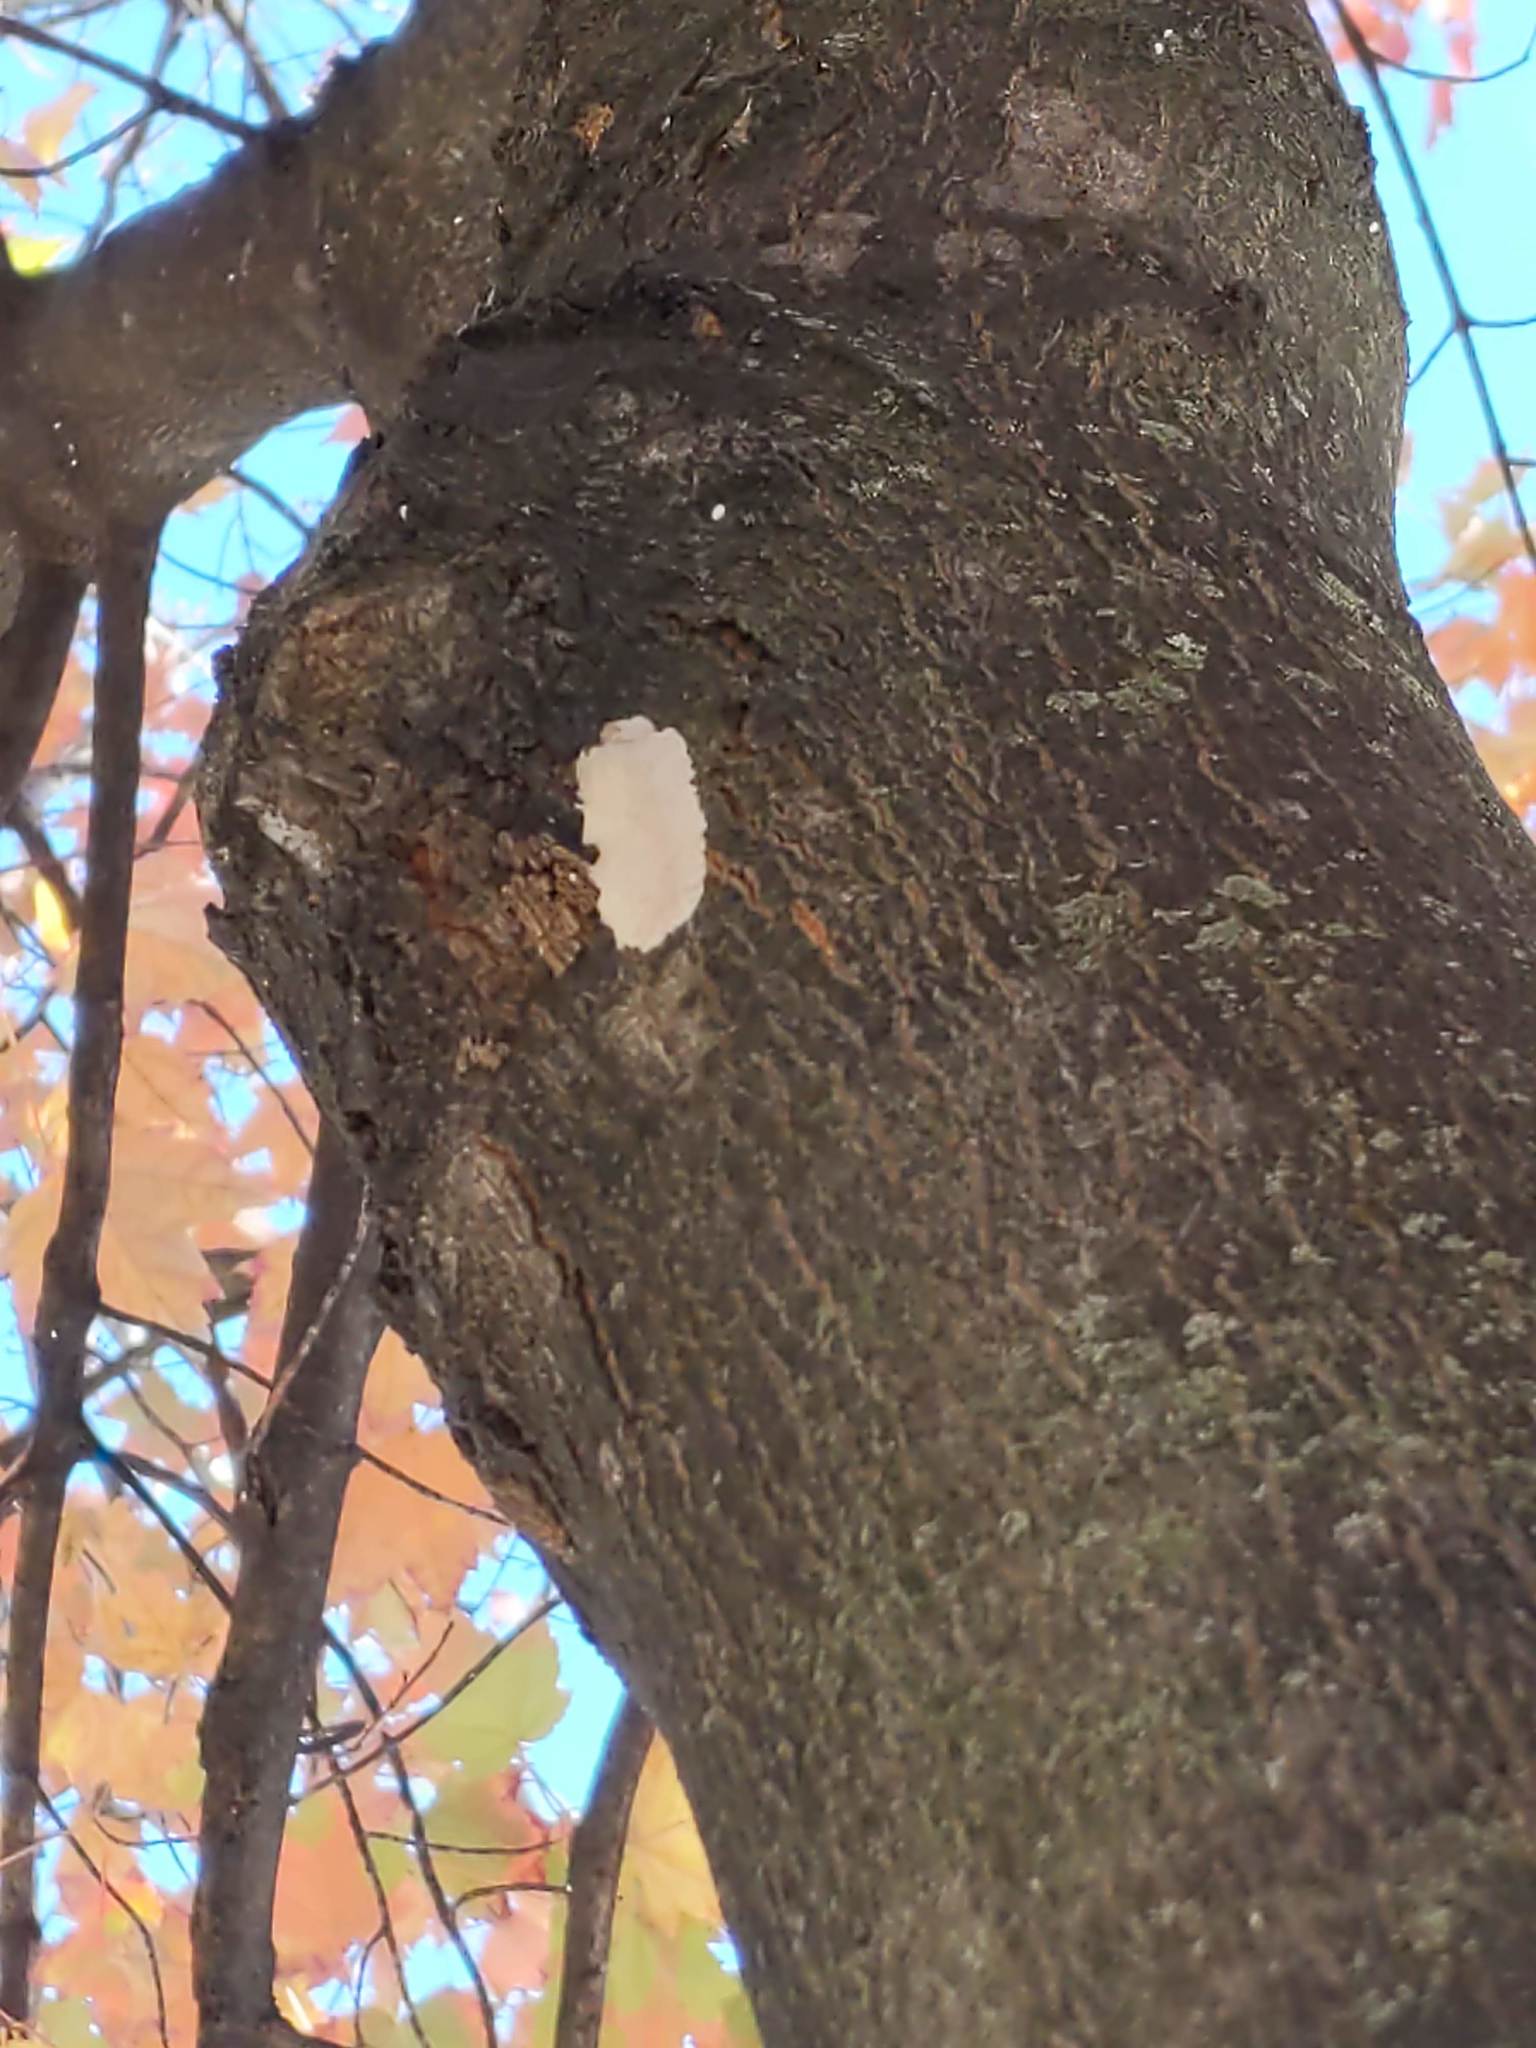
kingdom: Animalia
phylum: Arthropoda
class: Insecta
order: Hemiptera
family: Fulgoridae
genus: Lycorma
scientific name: Lycorma delicatula
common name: Spotted lanternfly
